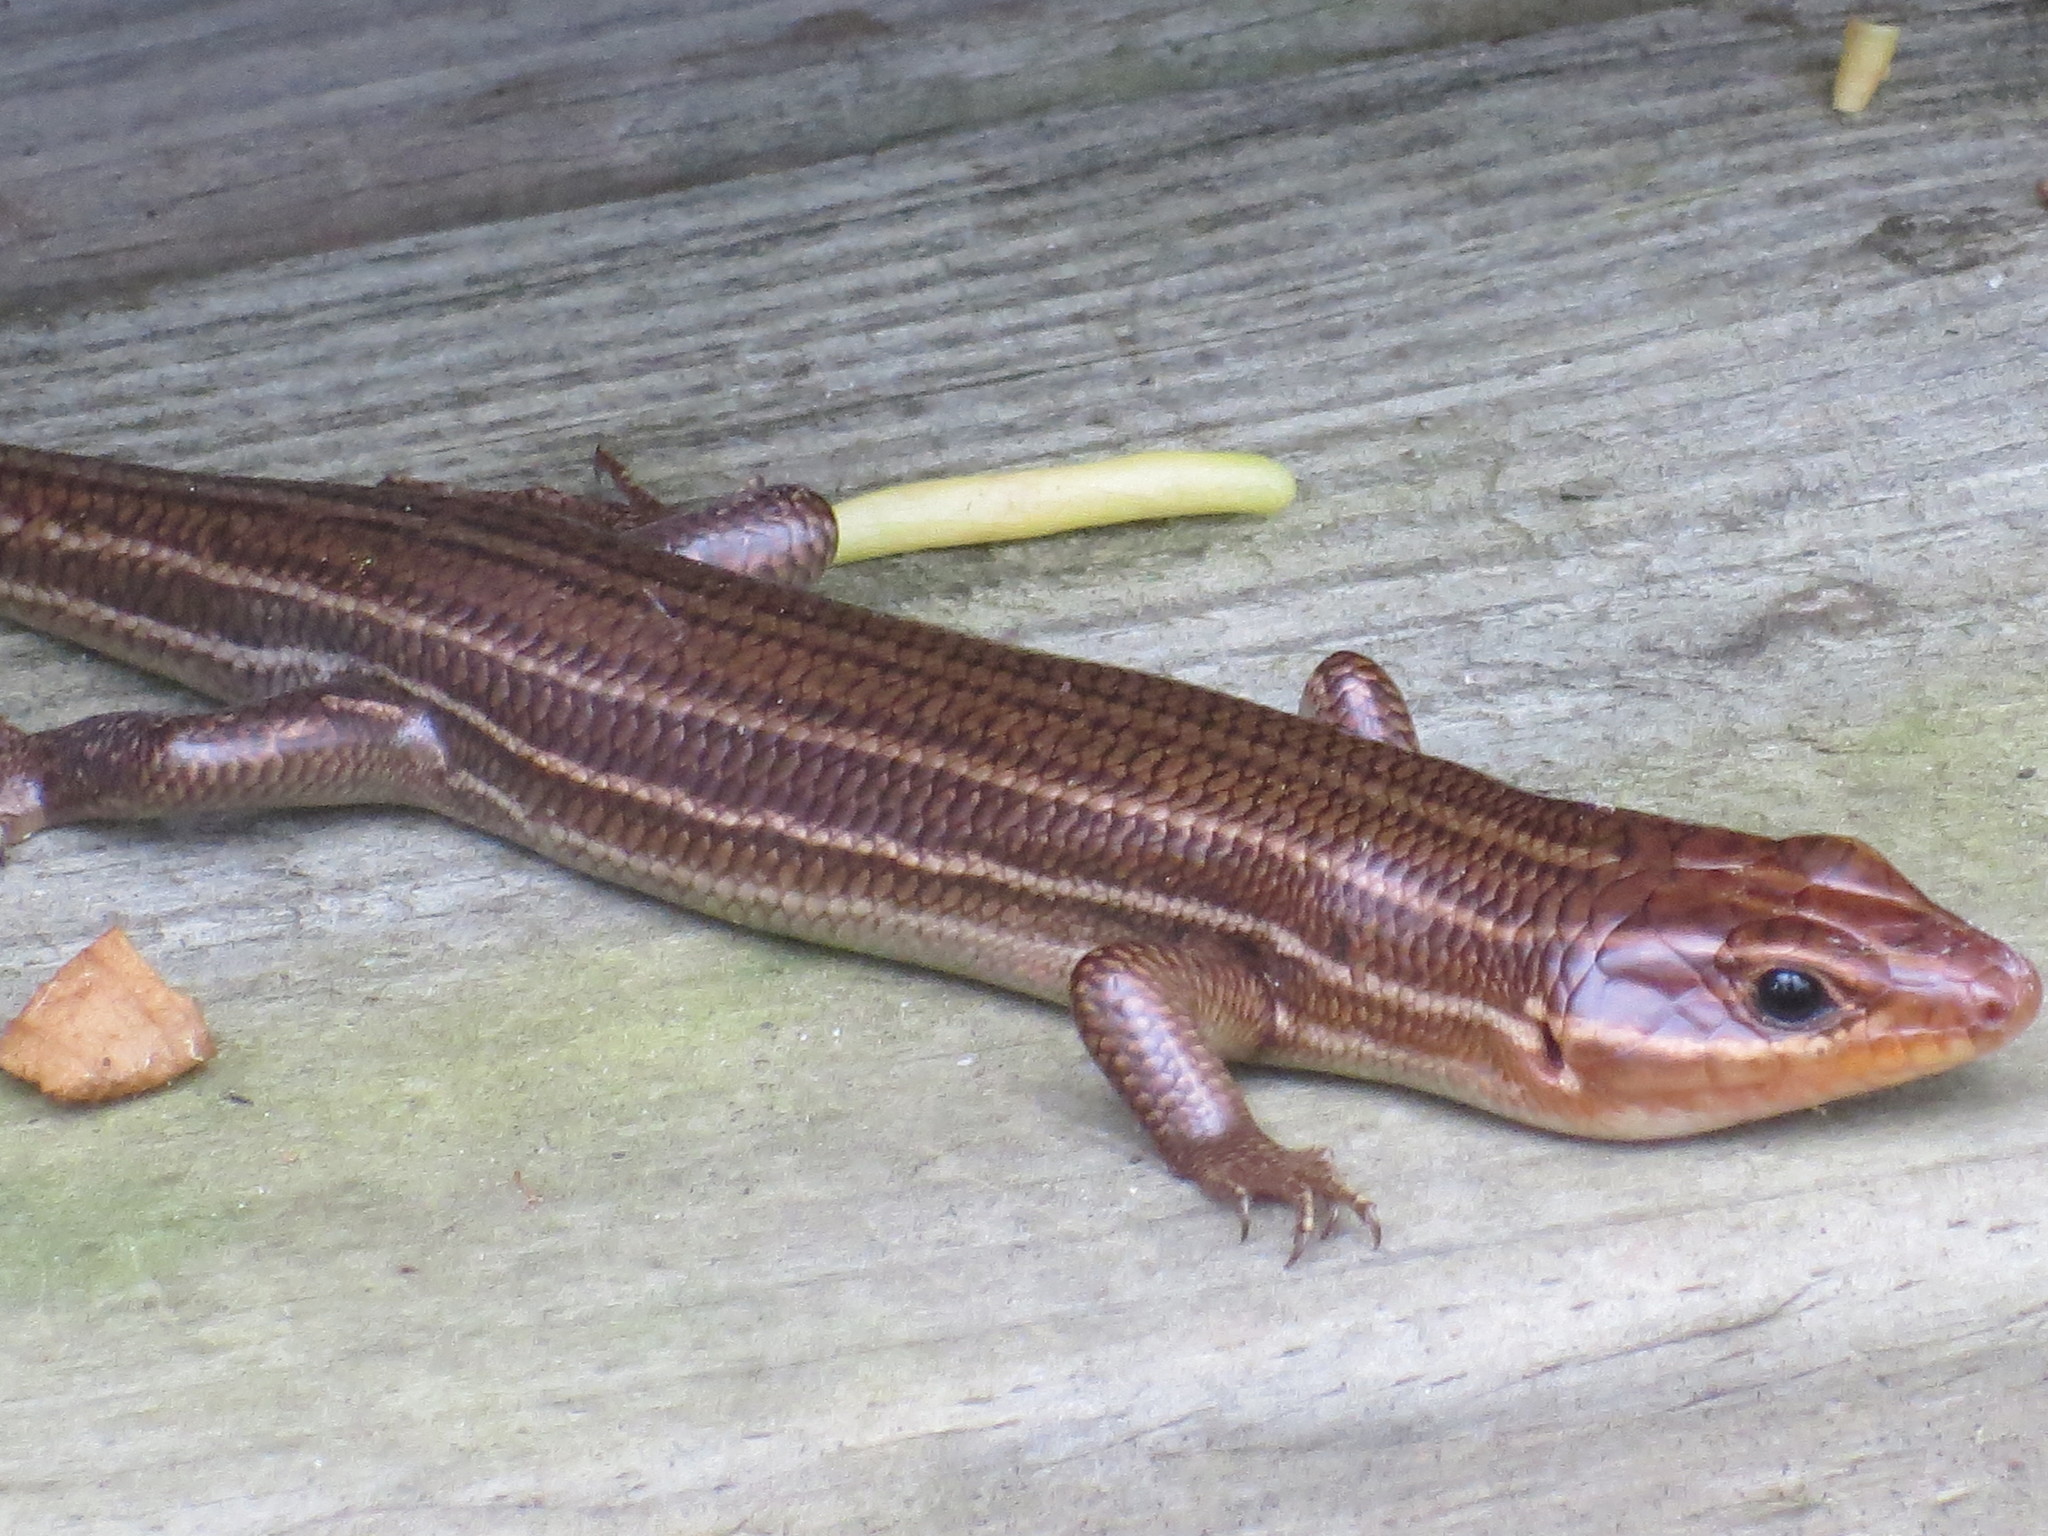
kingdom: Animalia
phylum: Chordata
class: Squamata
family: Scincidae
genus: Plestiodon
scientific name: Plestiodon laticeps
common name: Broadhead skink
